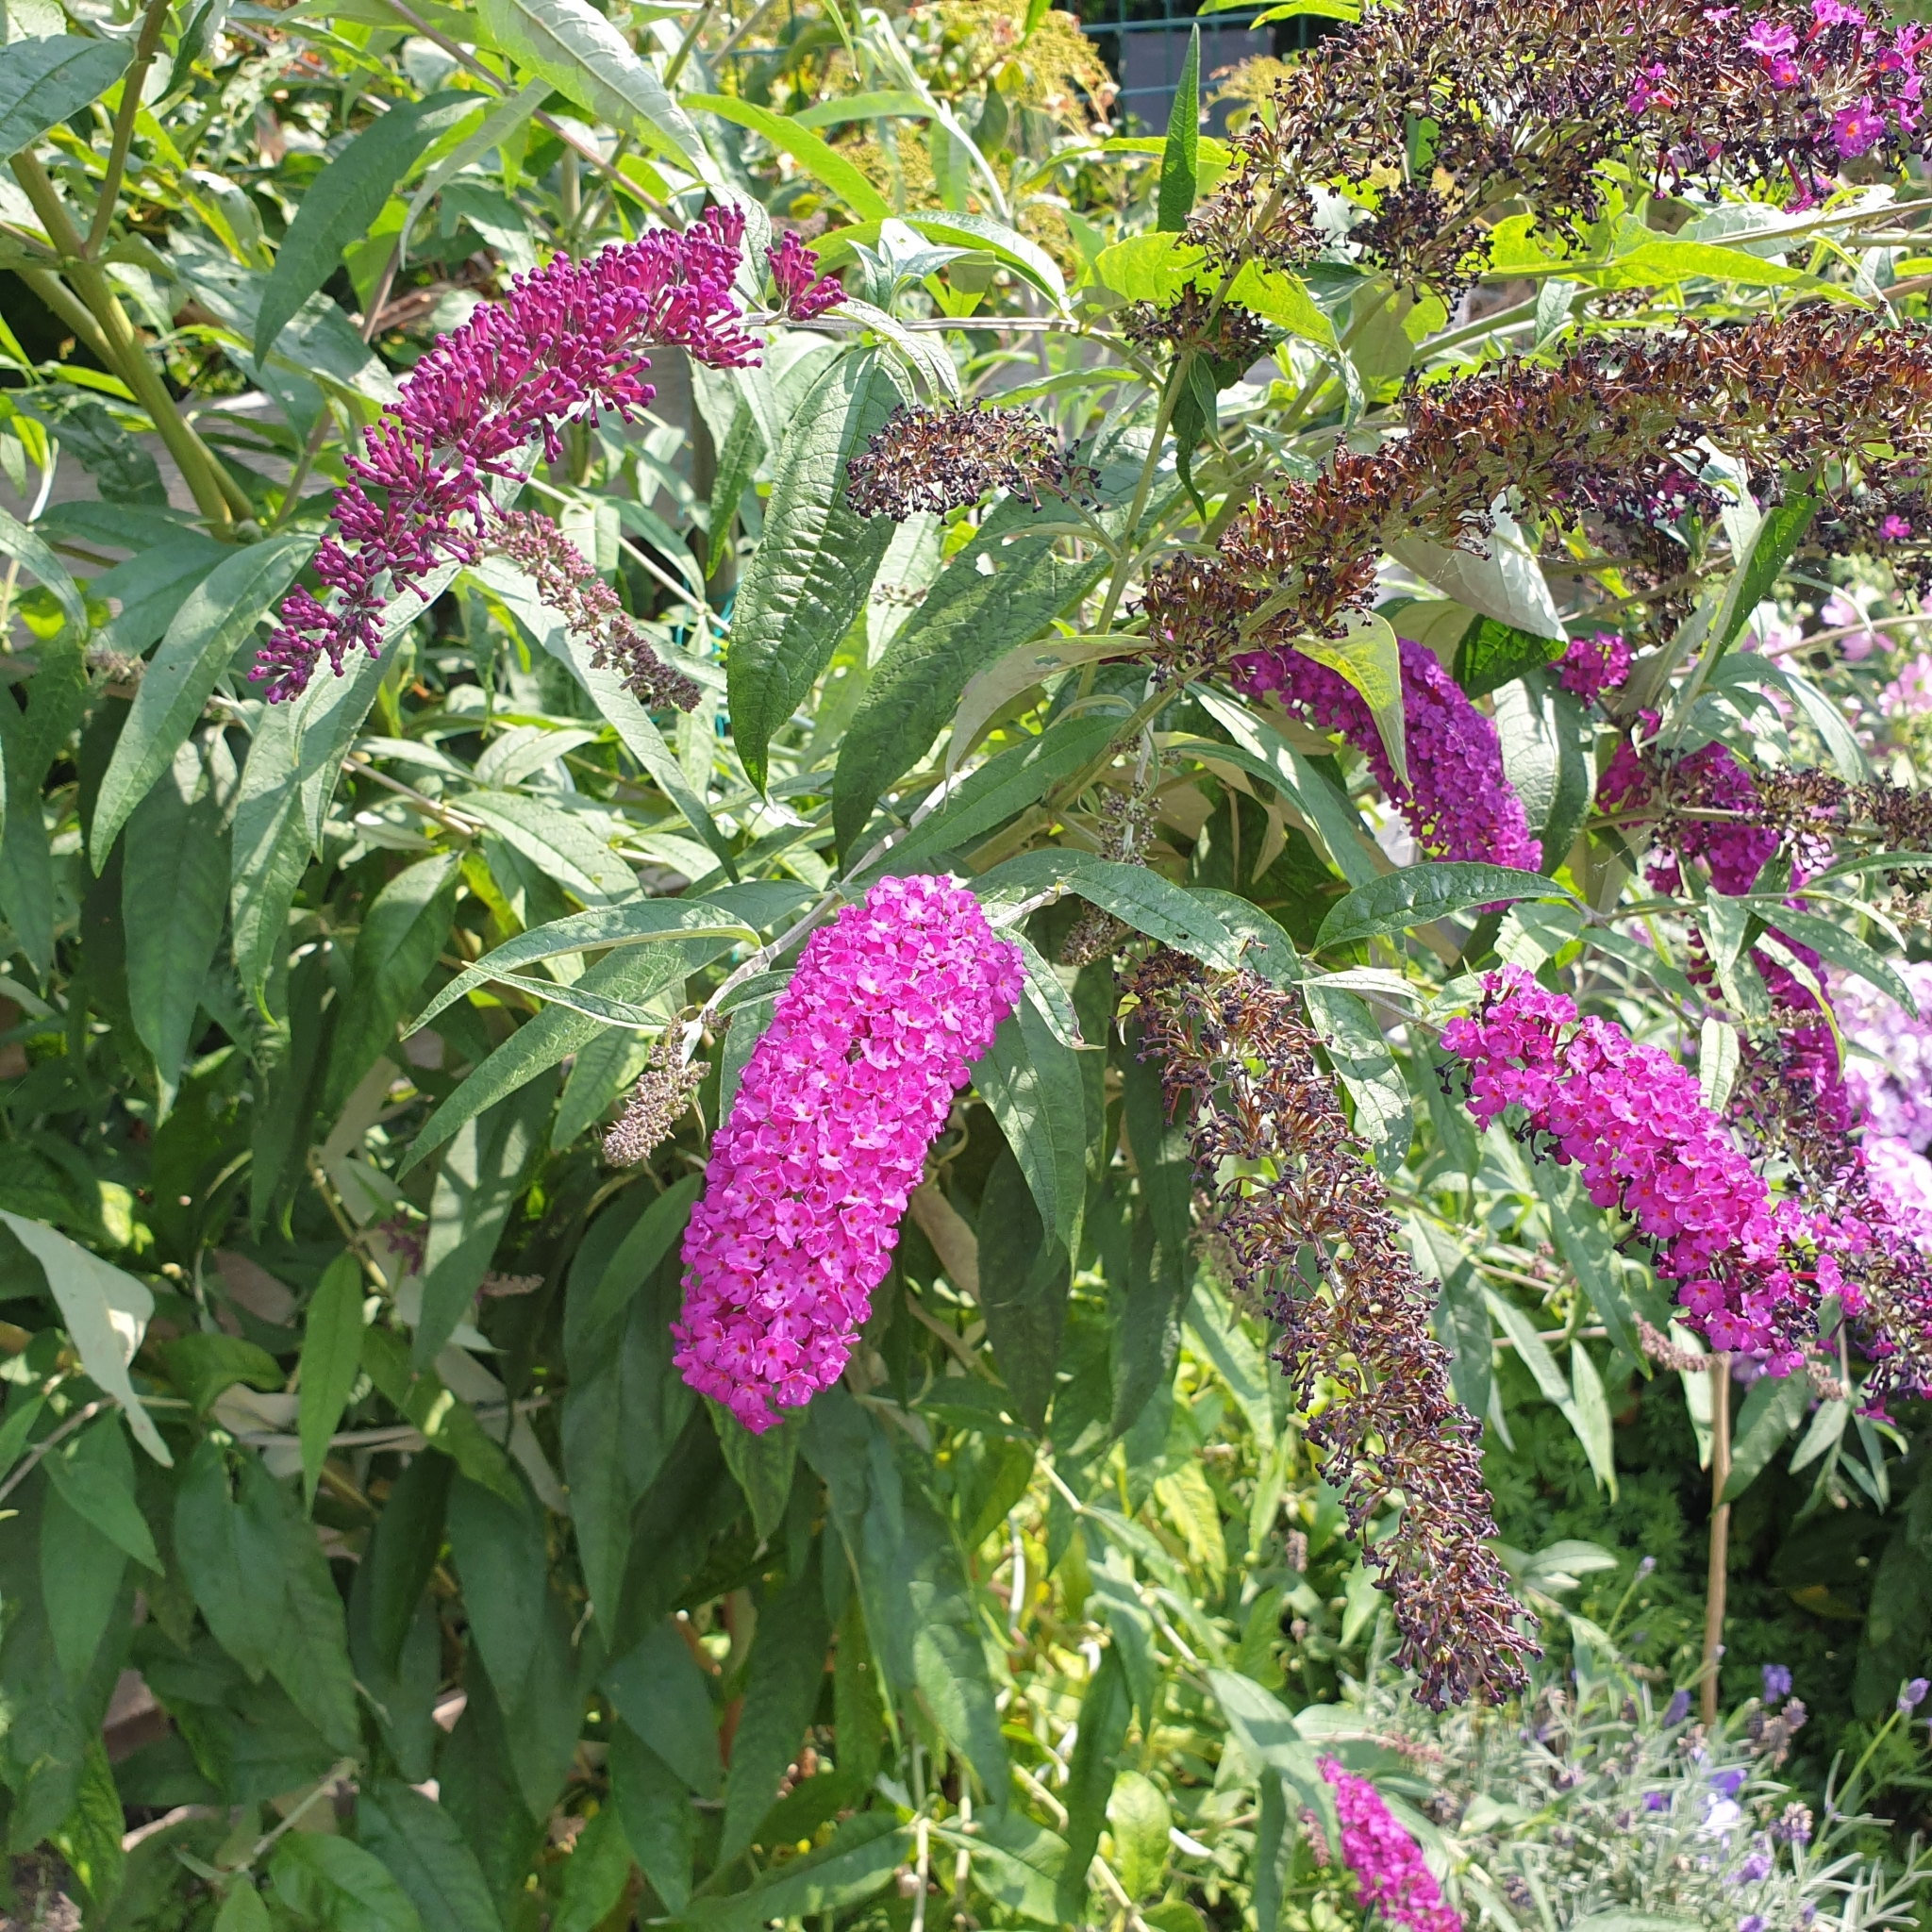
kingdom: Plantae
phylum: Tracheophyta
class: Magnoliopsida
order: Lamiales
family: Scrophulariaceae
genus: Buddleja
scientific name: Buddleja davidii
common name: Butterfly-bush
